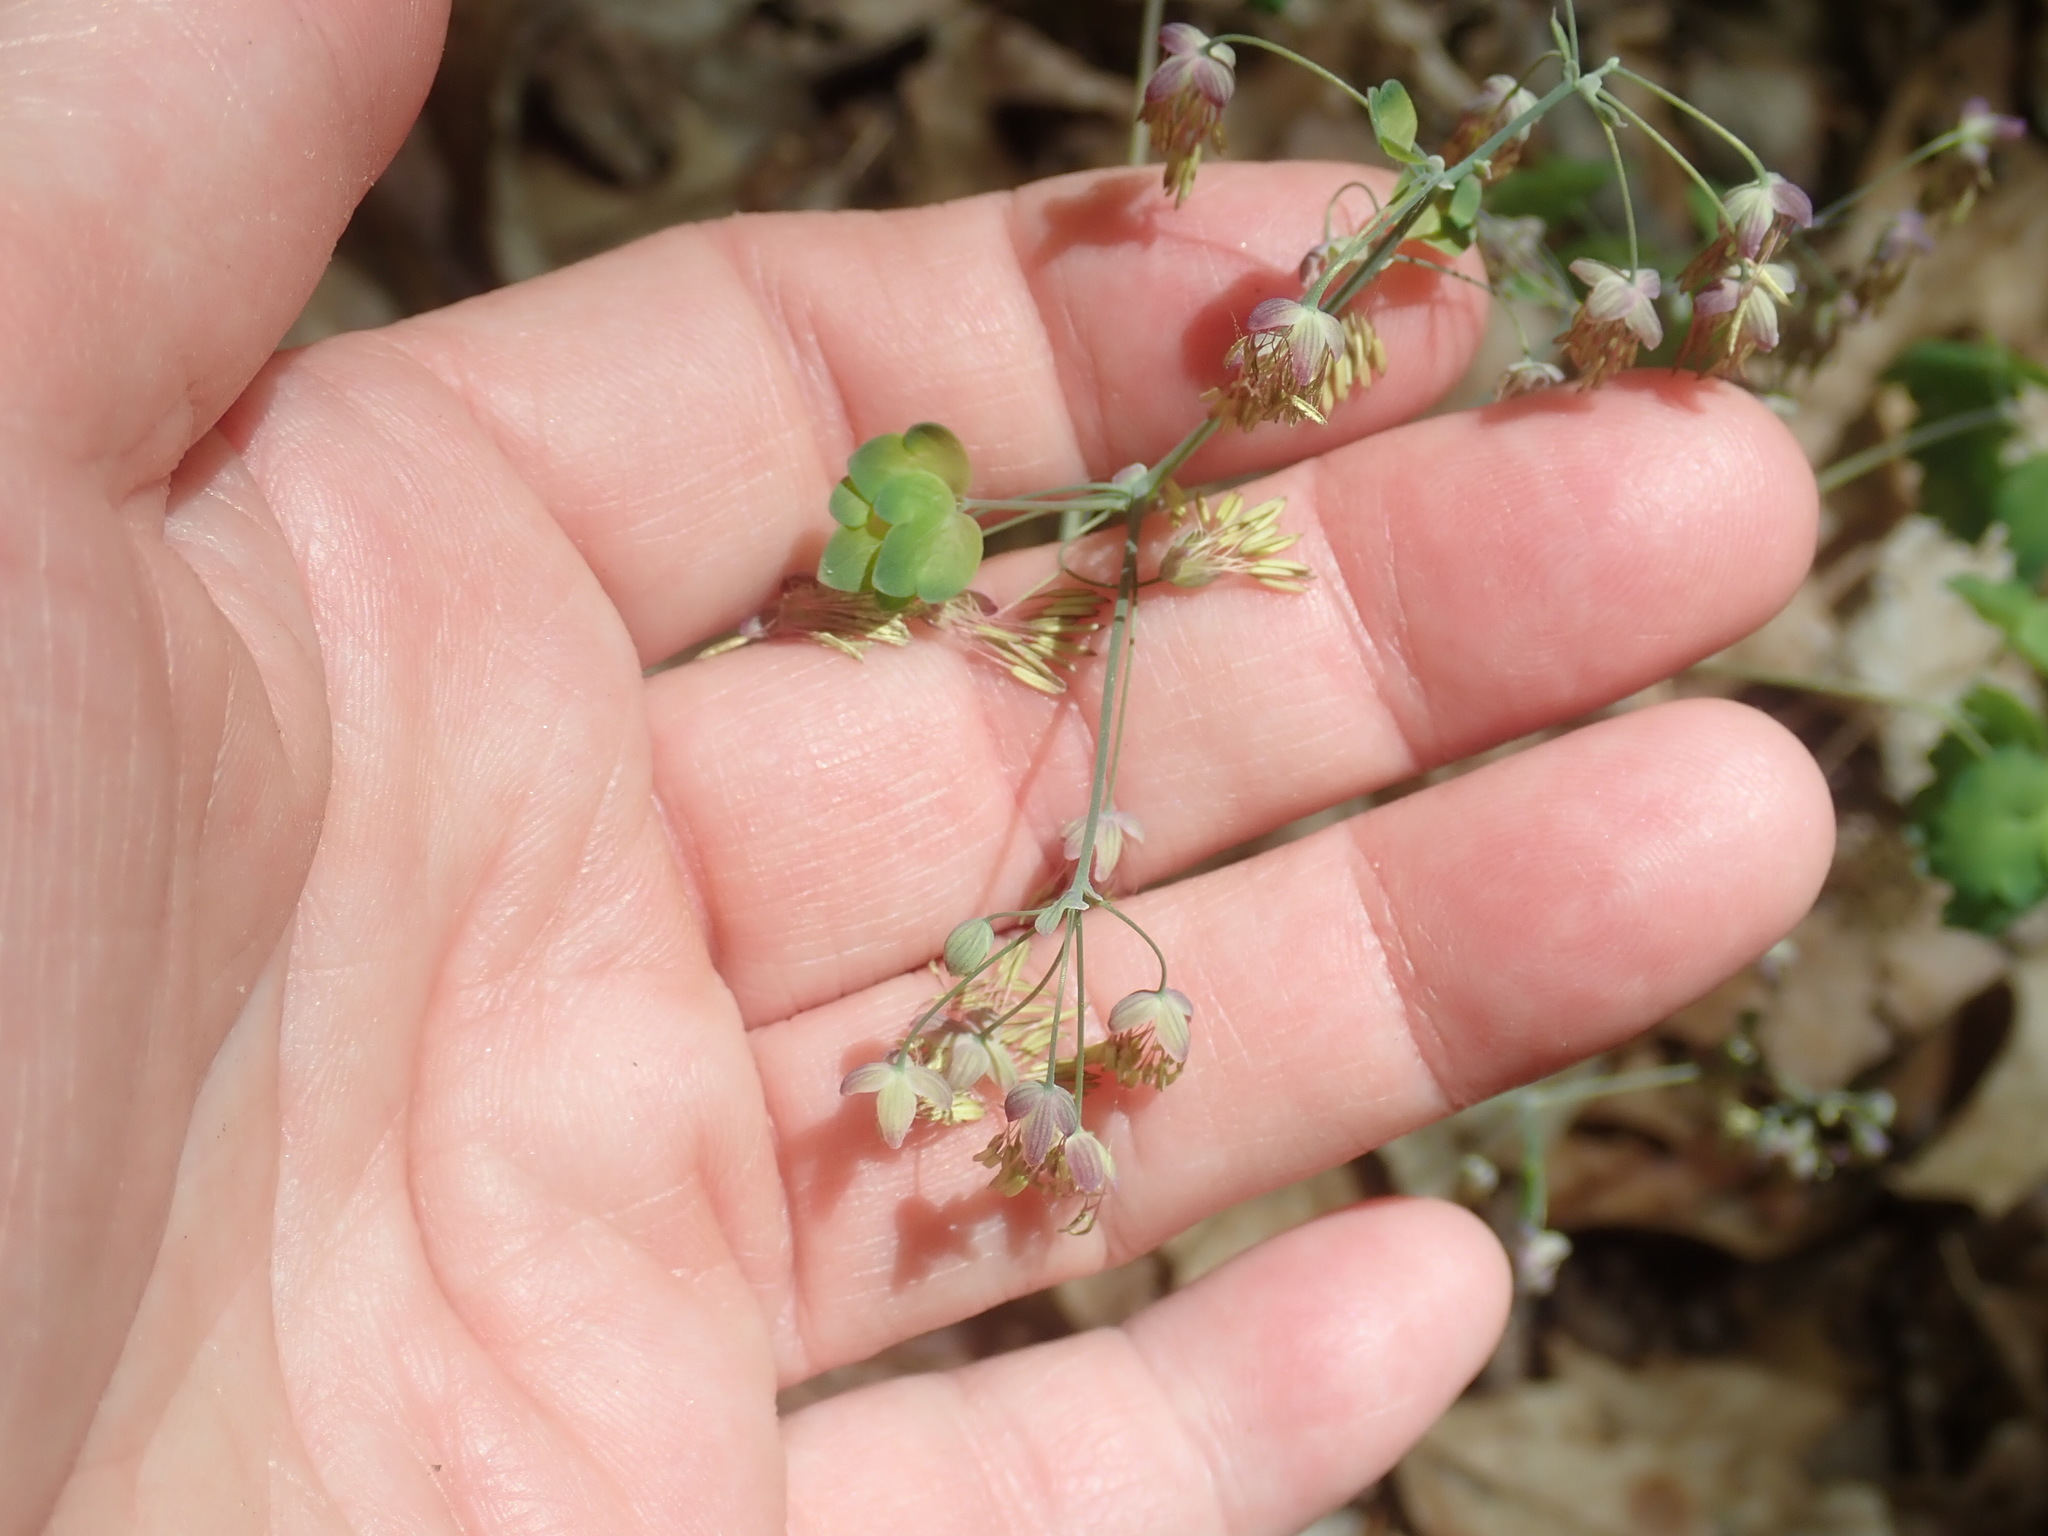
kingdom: Plantae
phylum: Tracheophyta
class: Magnoliopsida
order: Ranunculales
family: Ranunculaceae
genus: Thalictrum
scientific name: Thalictrum dioicum
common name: Early meadow-rue
